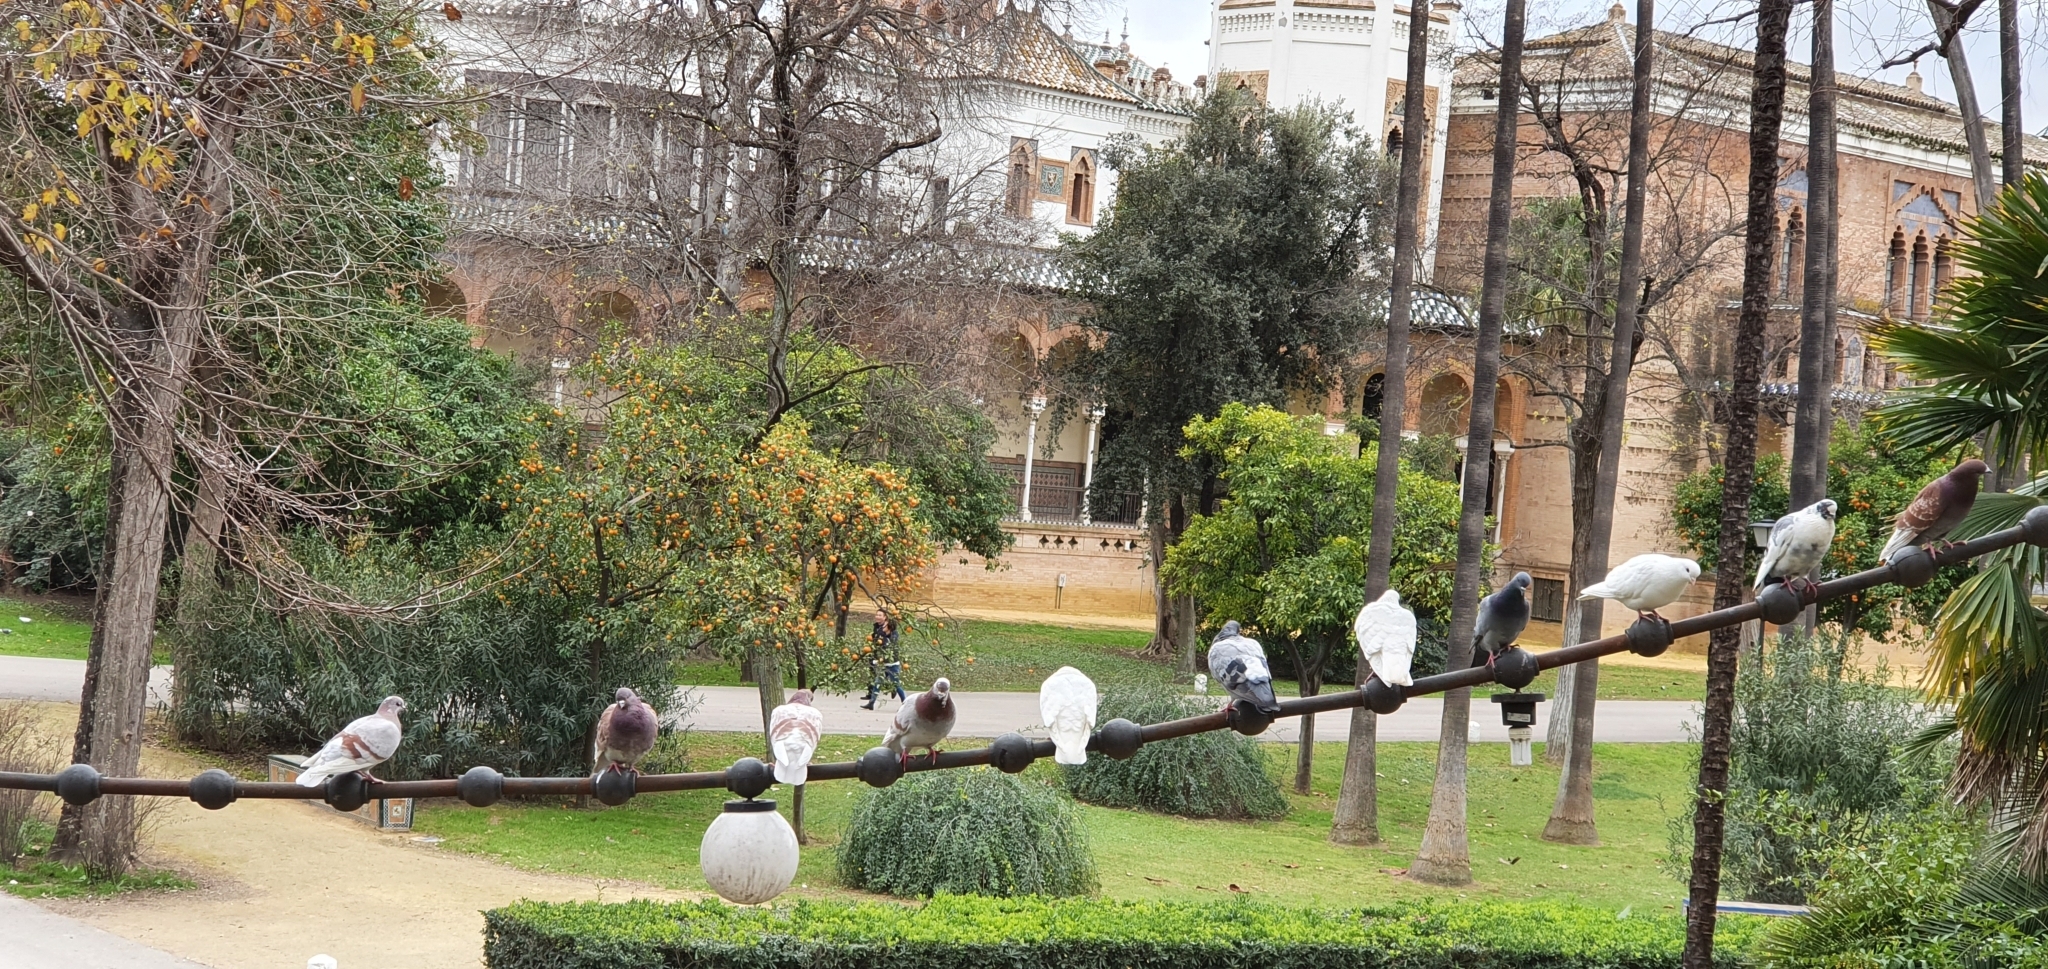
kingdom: Animalia
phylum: Chordata
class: Aves
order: Columbiformes
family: Columbidae
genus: Columba
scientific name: Columba livia
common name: Rock pigeon
